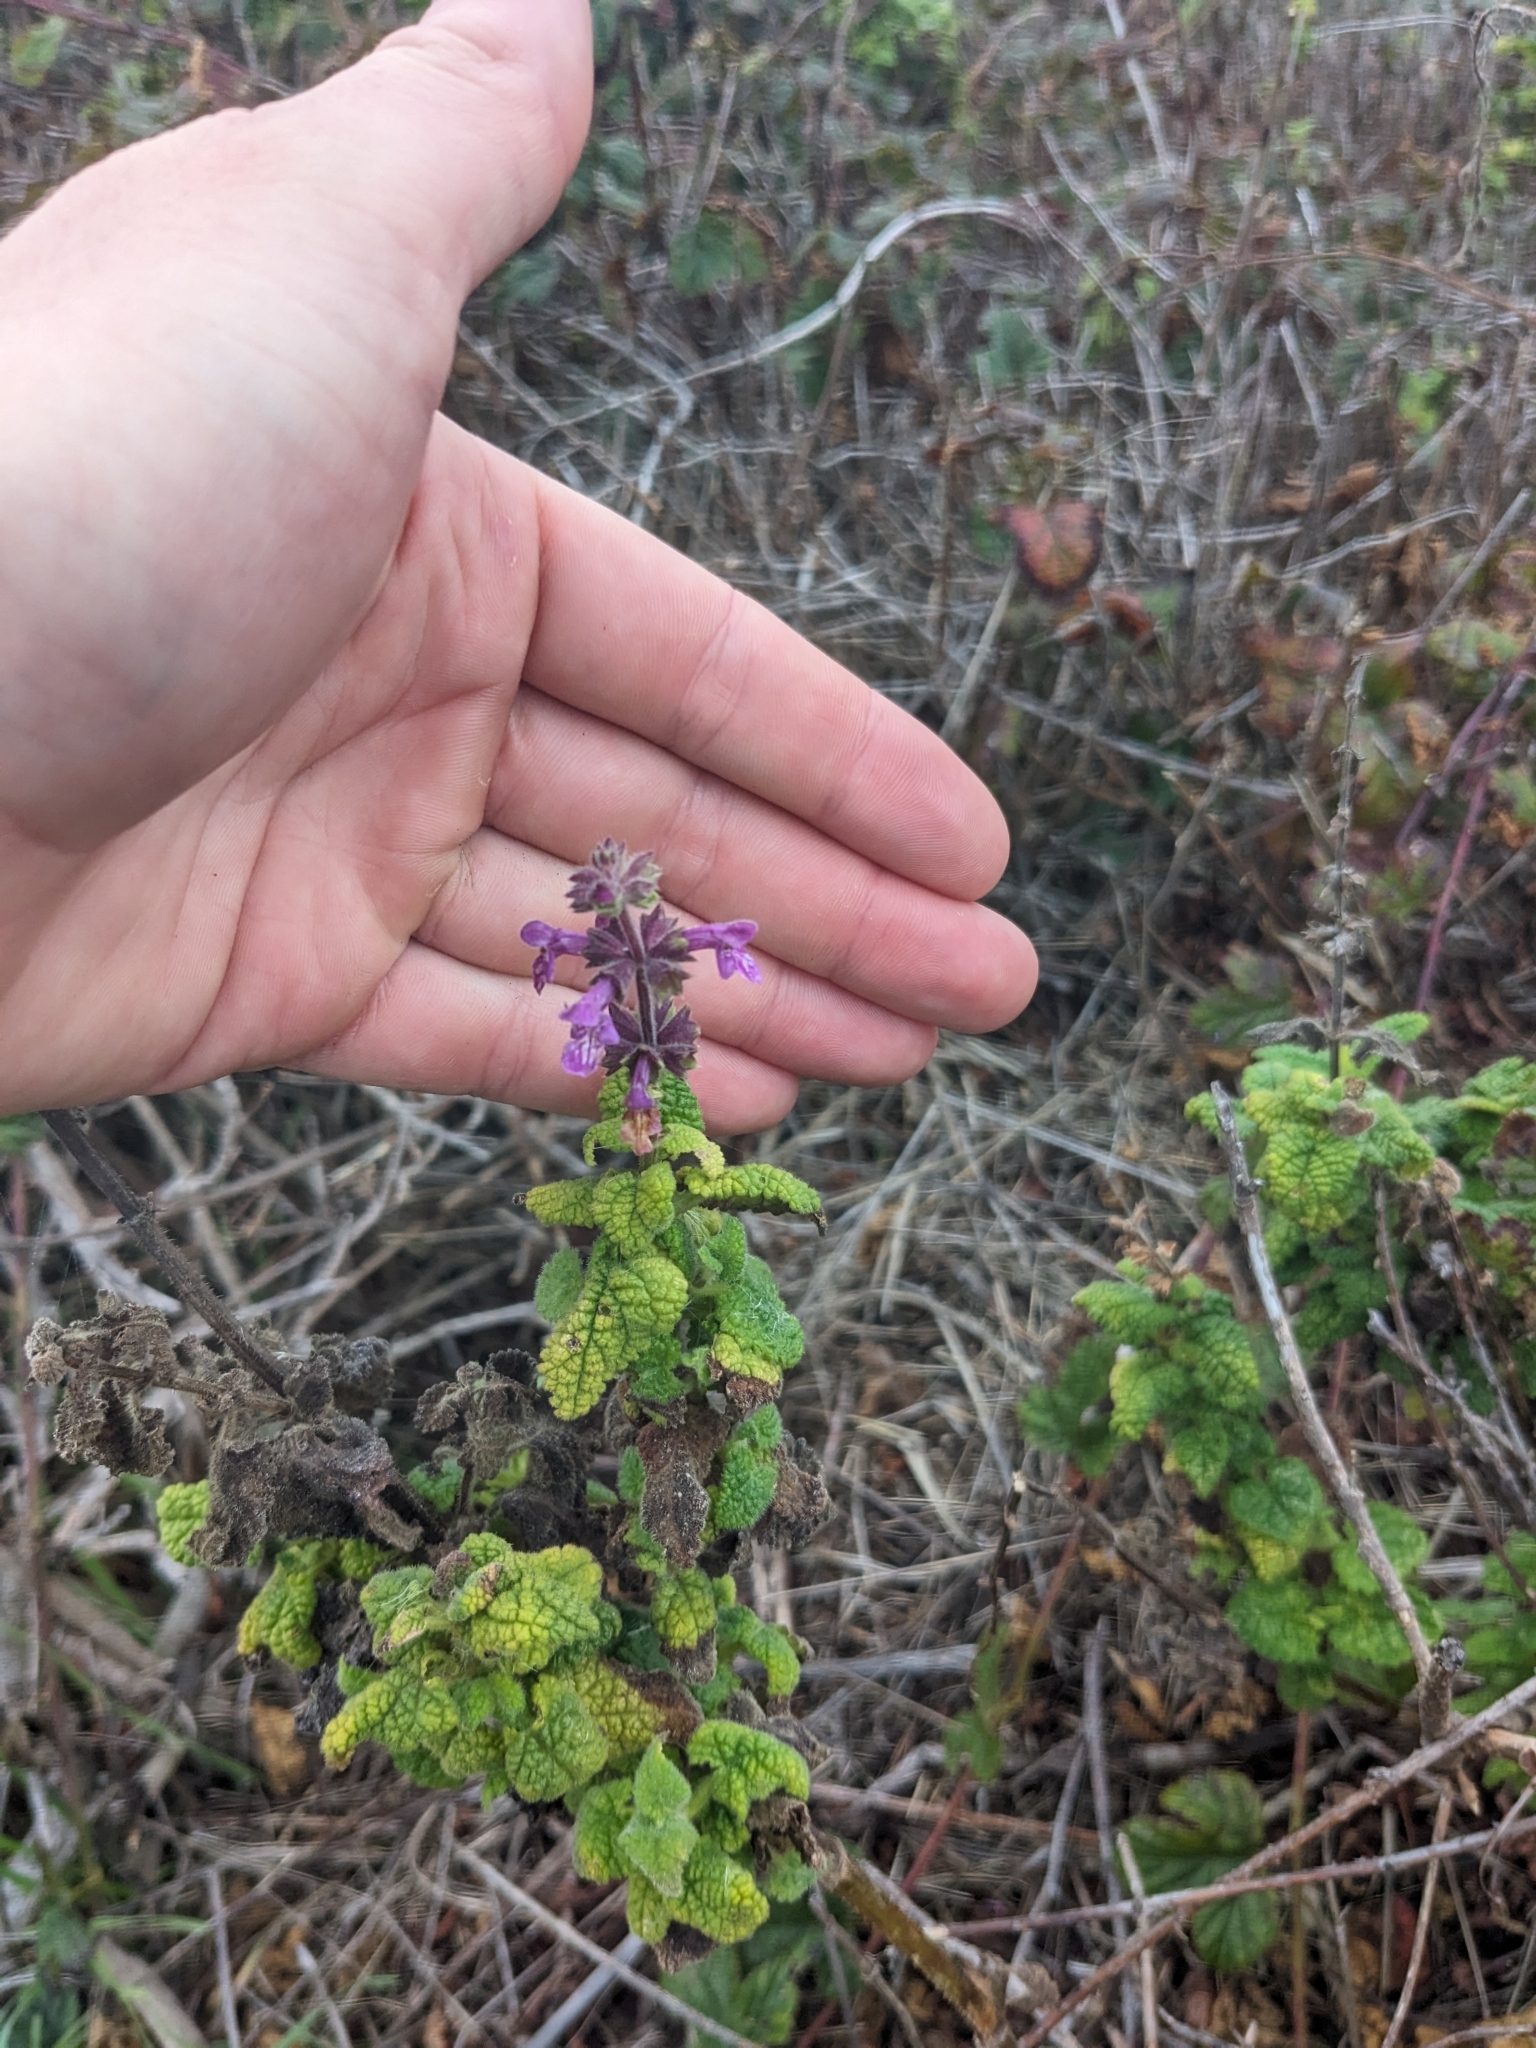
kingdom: Plantae
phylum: Tracheophyta
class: Magnoliopsida
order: Lamiales
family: Lamiaceae
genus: Stachys
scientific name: Stachys bullata
